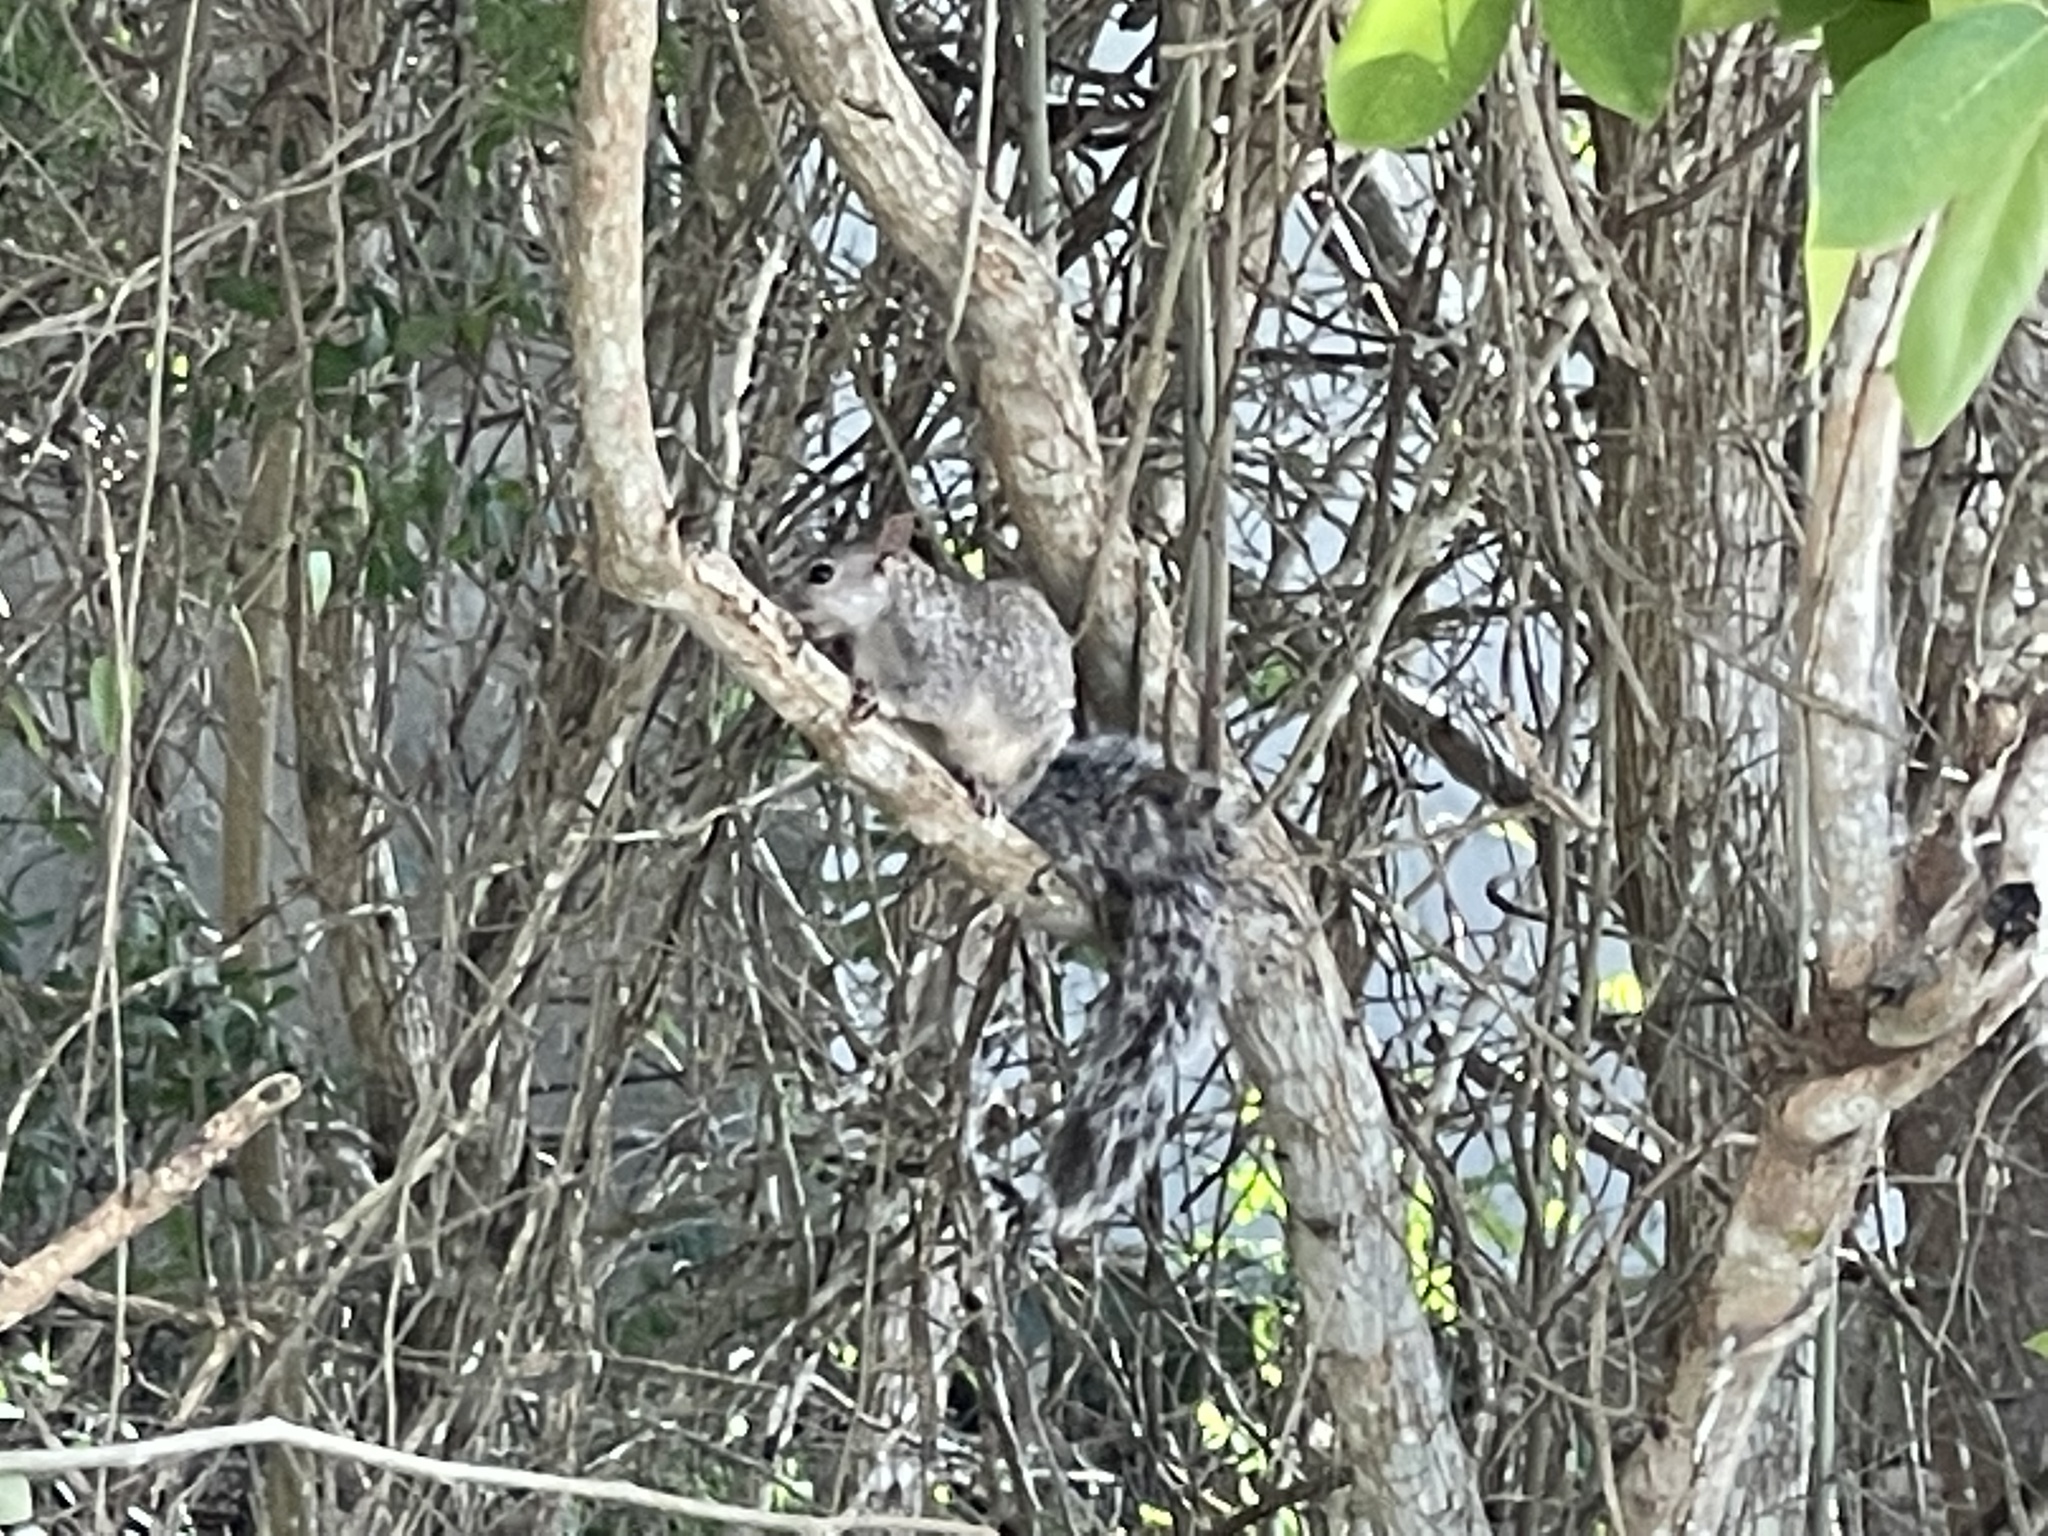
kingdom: Animalia
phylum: Chordata
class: Mammalia
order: Rodentia
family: Sciuridae
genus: Sciurus
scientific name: Sciurus yucatanensis
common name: Yucatan squirrel
